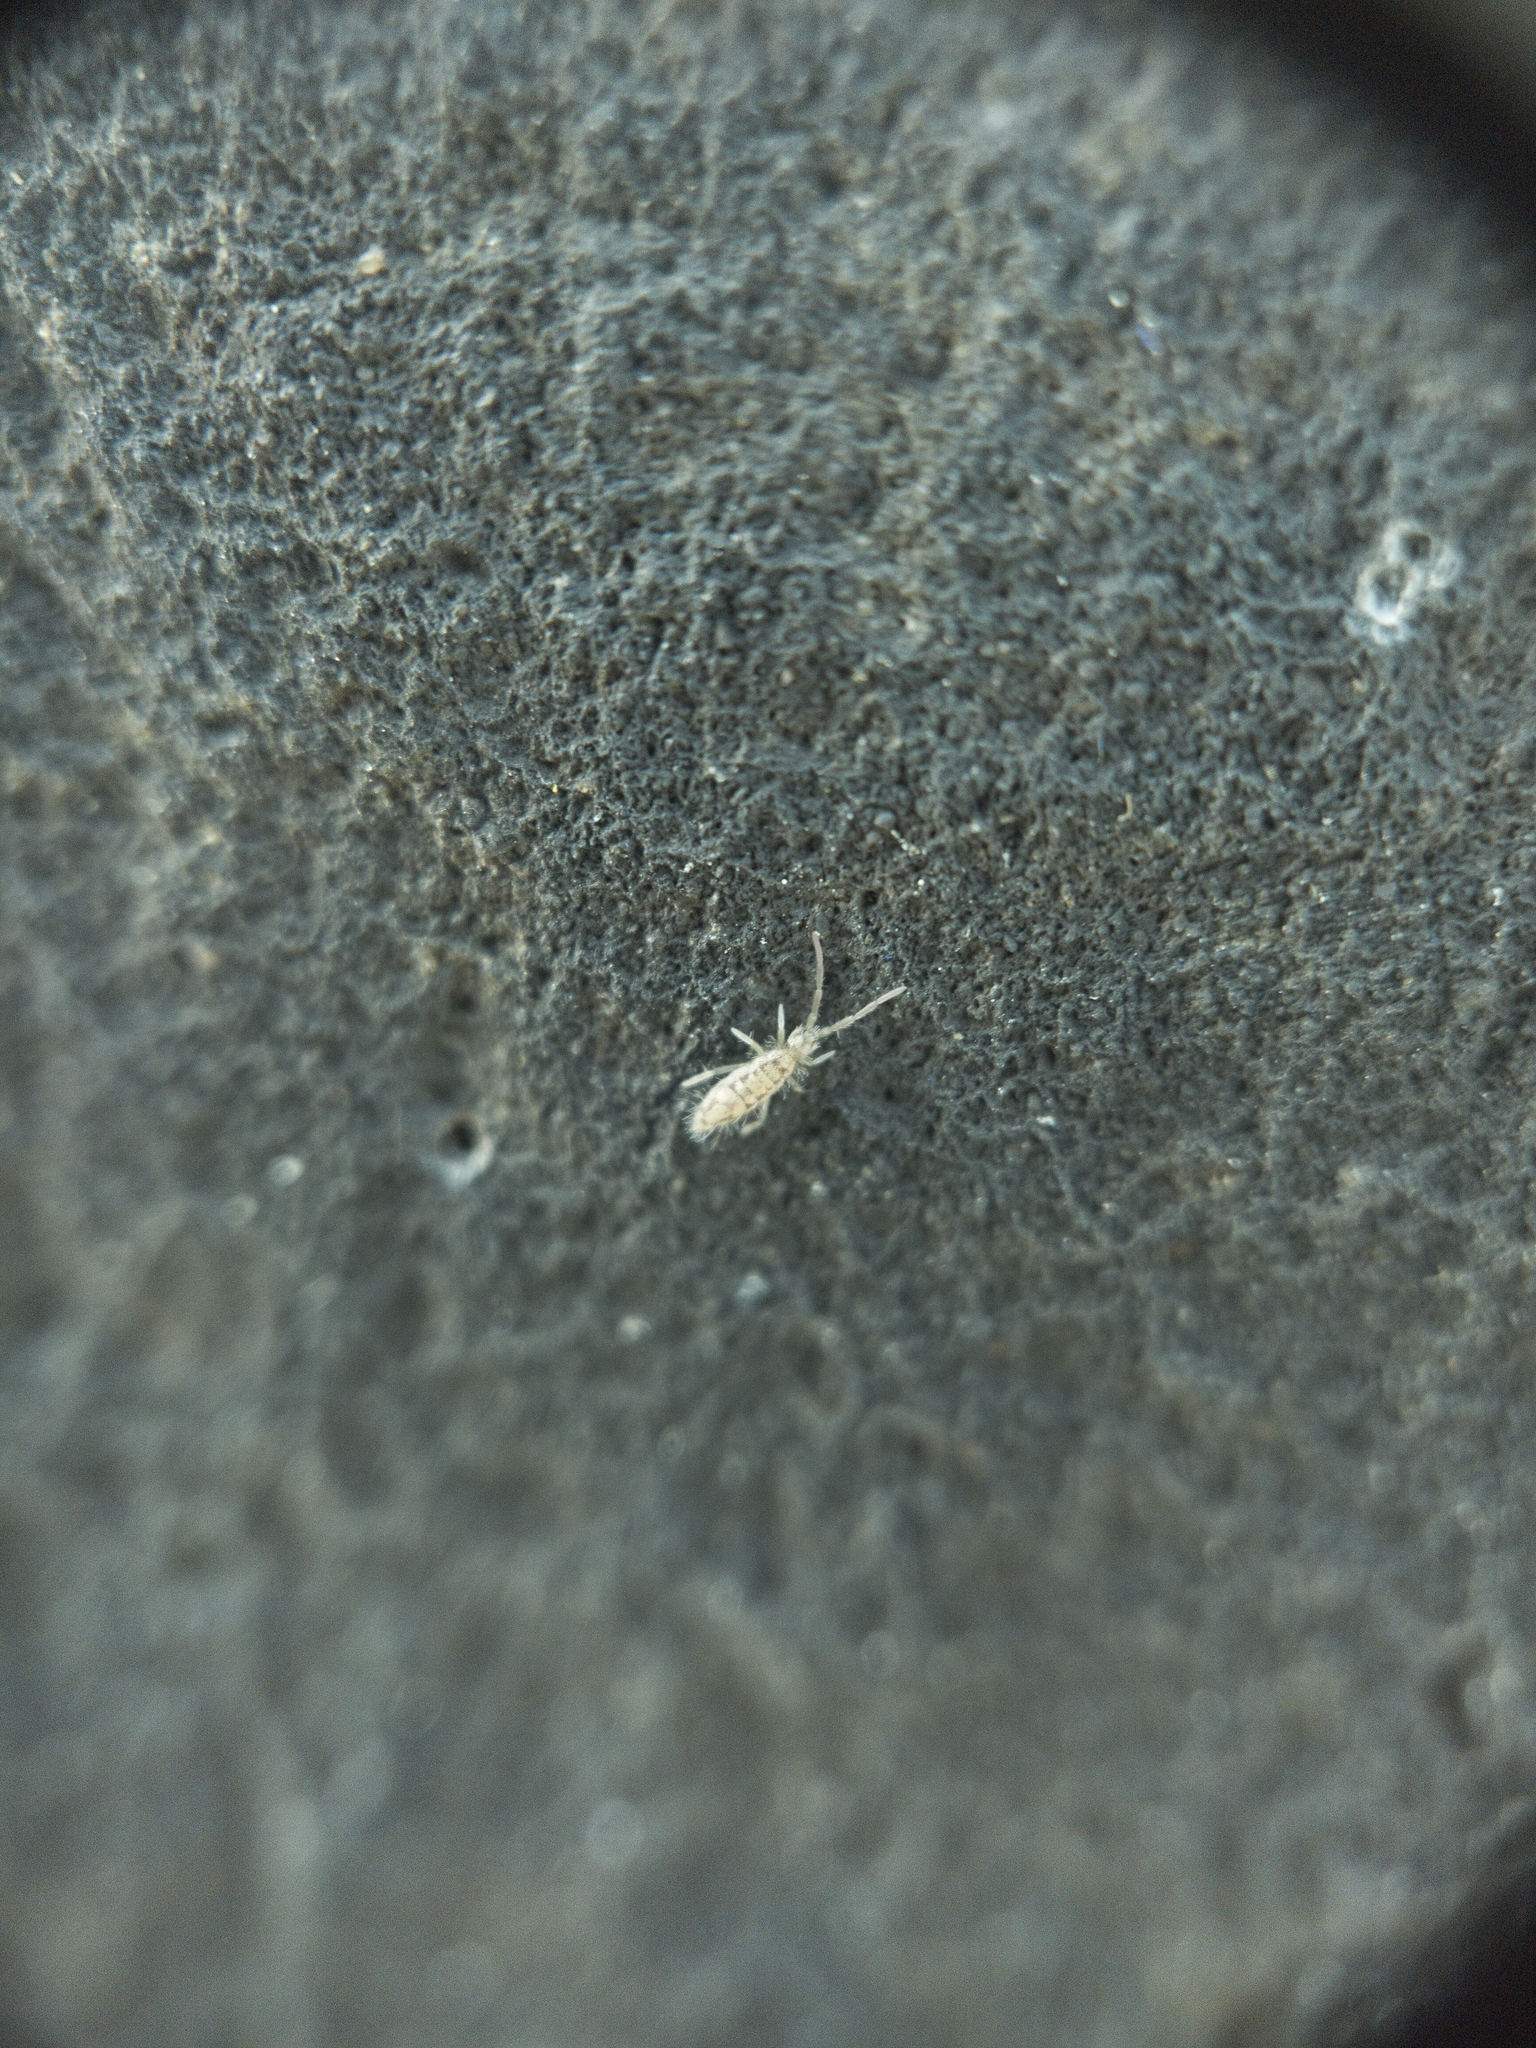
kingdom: Animalia
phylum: Arthropoda
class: Collembola
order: Entomobryomorpha
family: Entomobryidae
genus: Entomobrya
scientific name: Entomobrya intermedia
